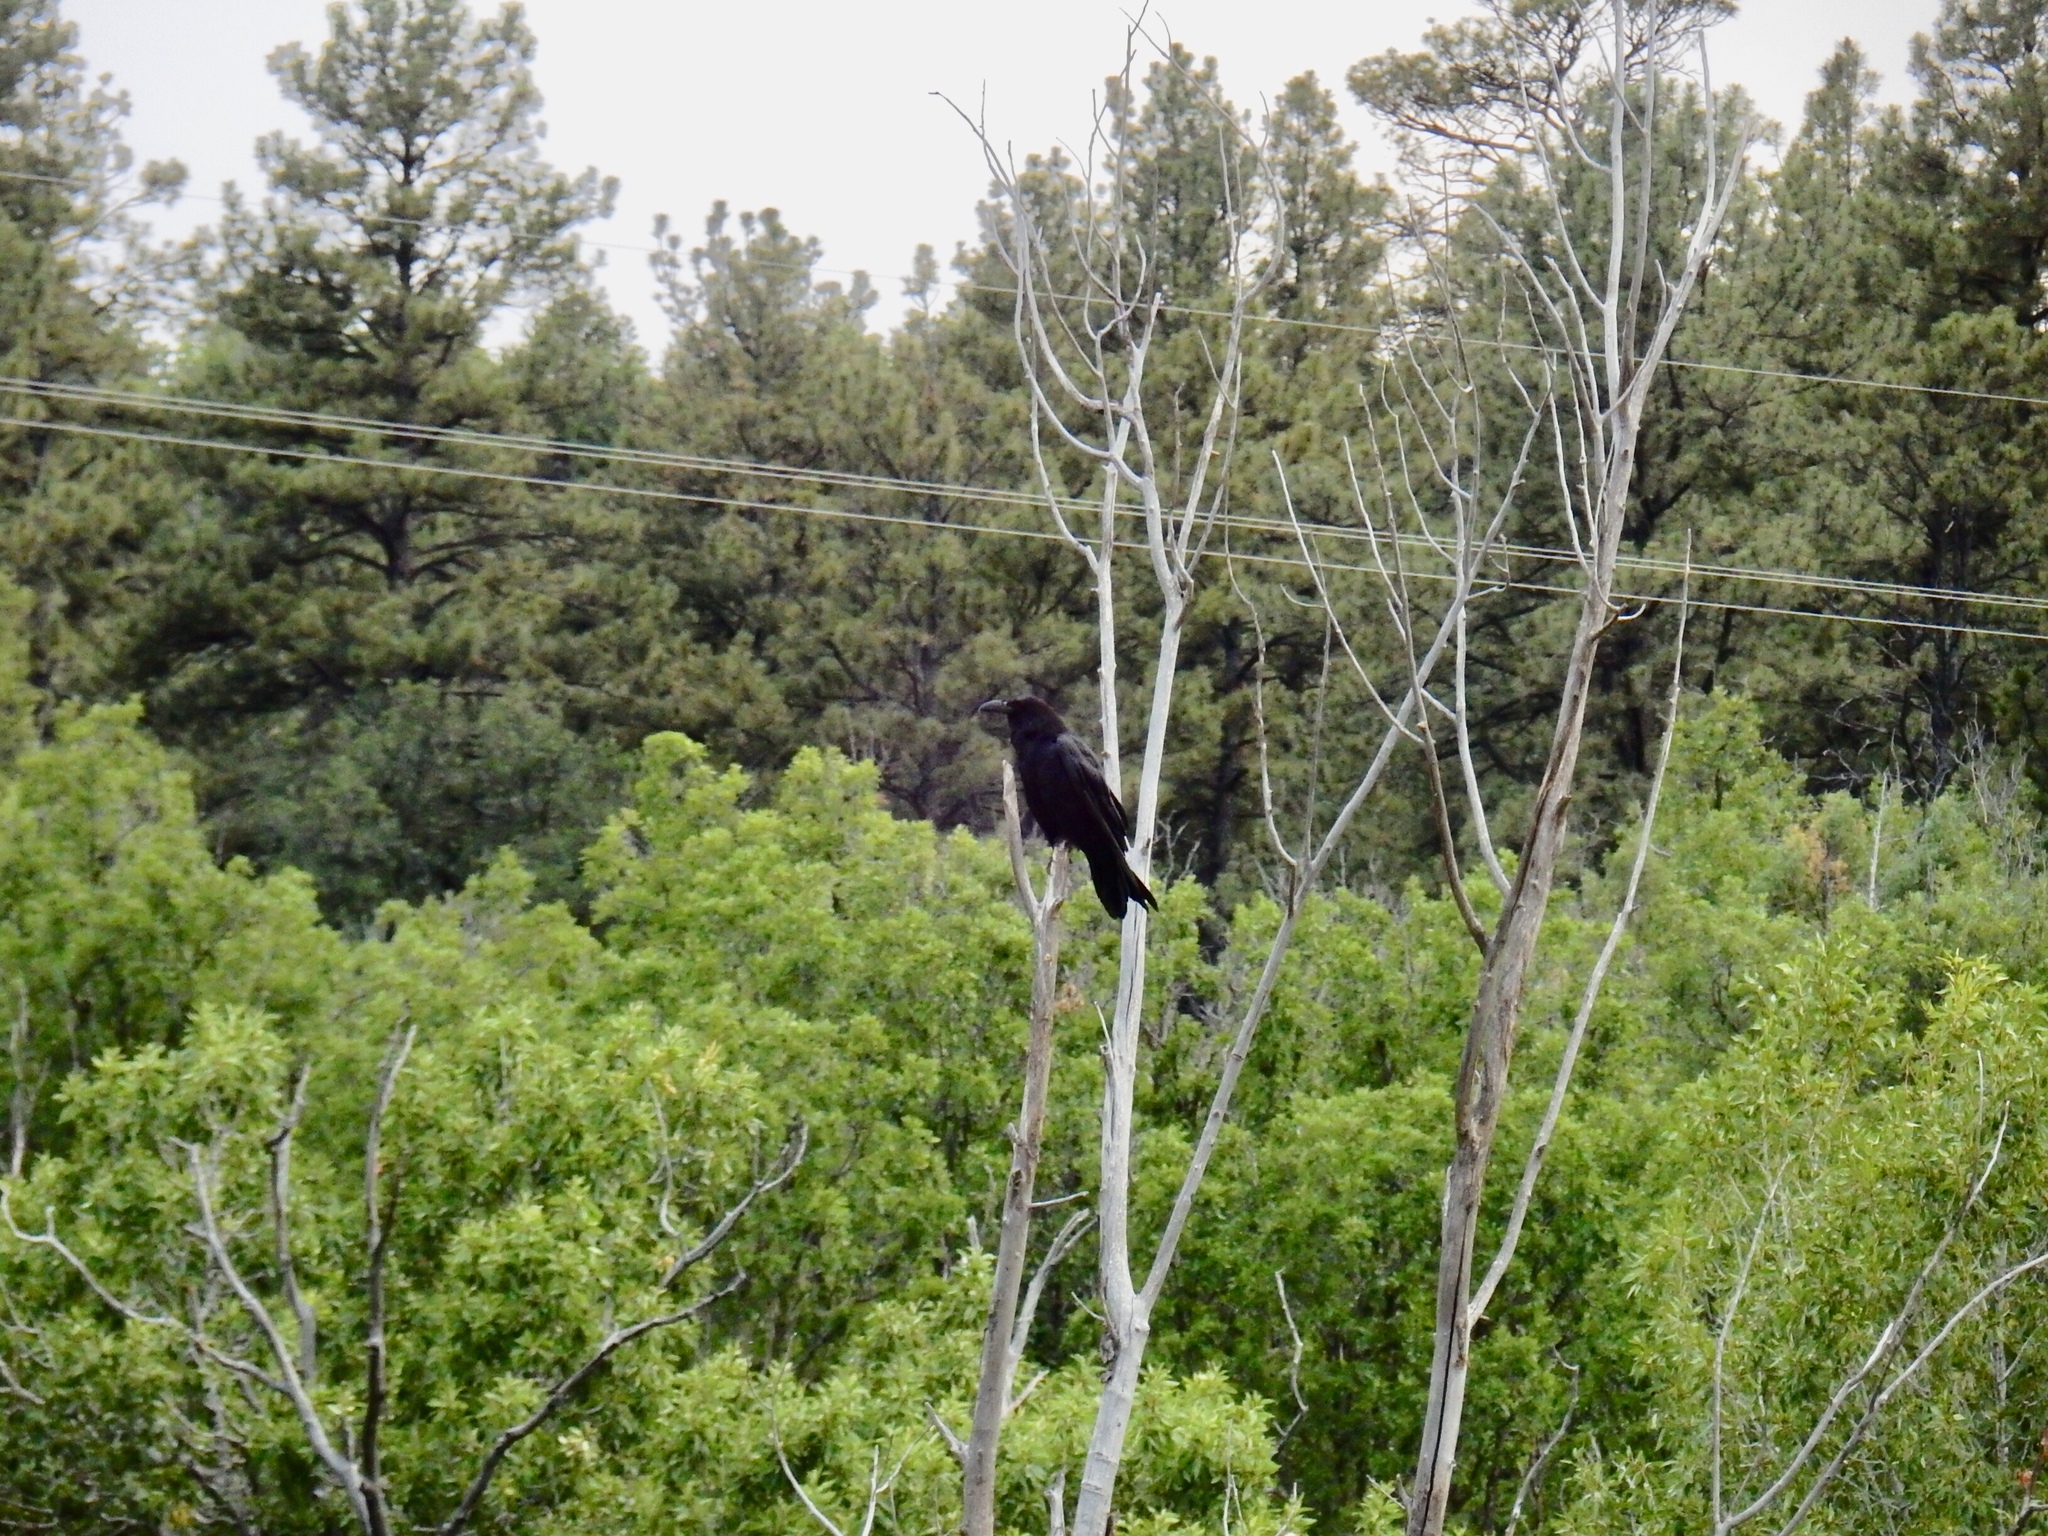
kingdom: Animalia
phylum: Chordata
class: Aves
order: Passeriformes
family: Corvidae
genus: Corvus
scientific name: Corvus corax
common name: Common raven
